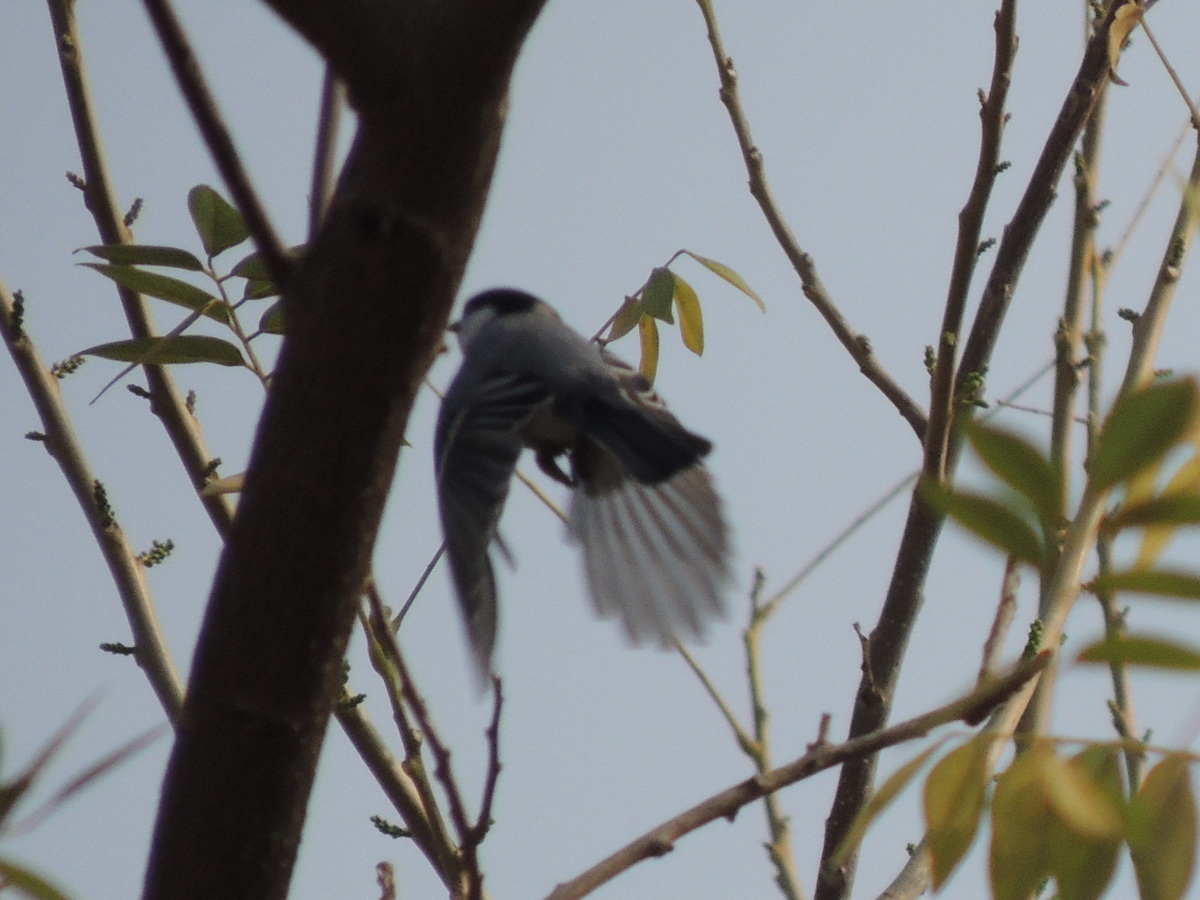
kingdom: Animalia
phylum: Chordata
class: Aves
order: Passeriformes
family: Paridae
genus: Parus
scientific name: Parus cinereus
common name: Cinereous tit
